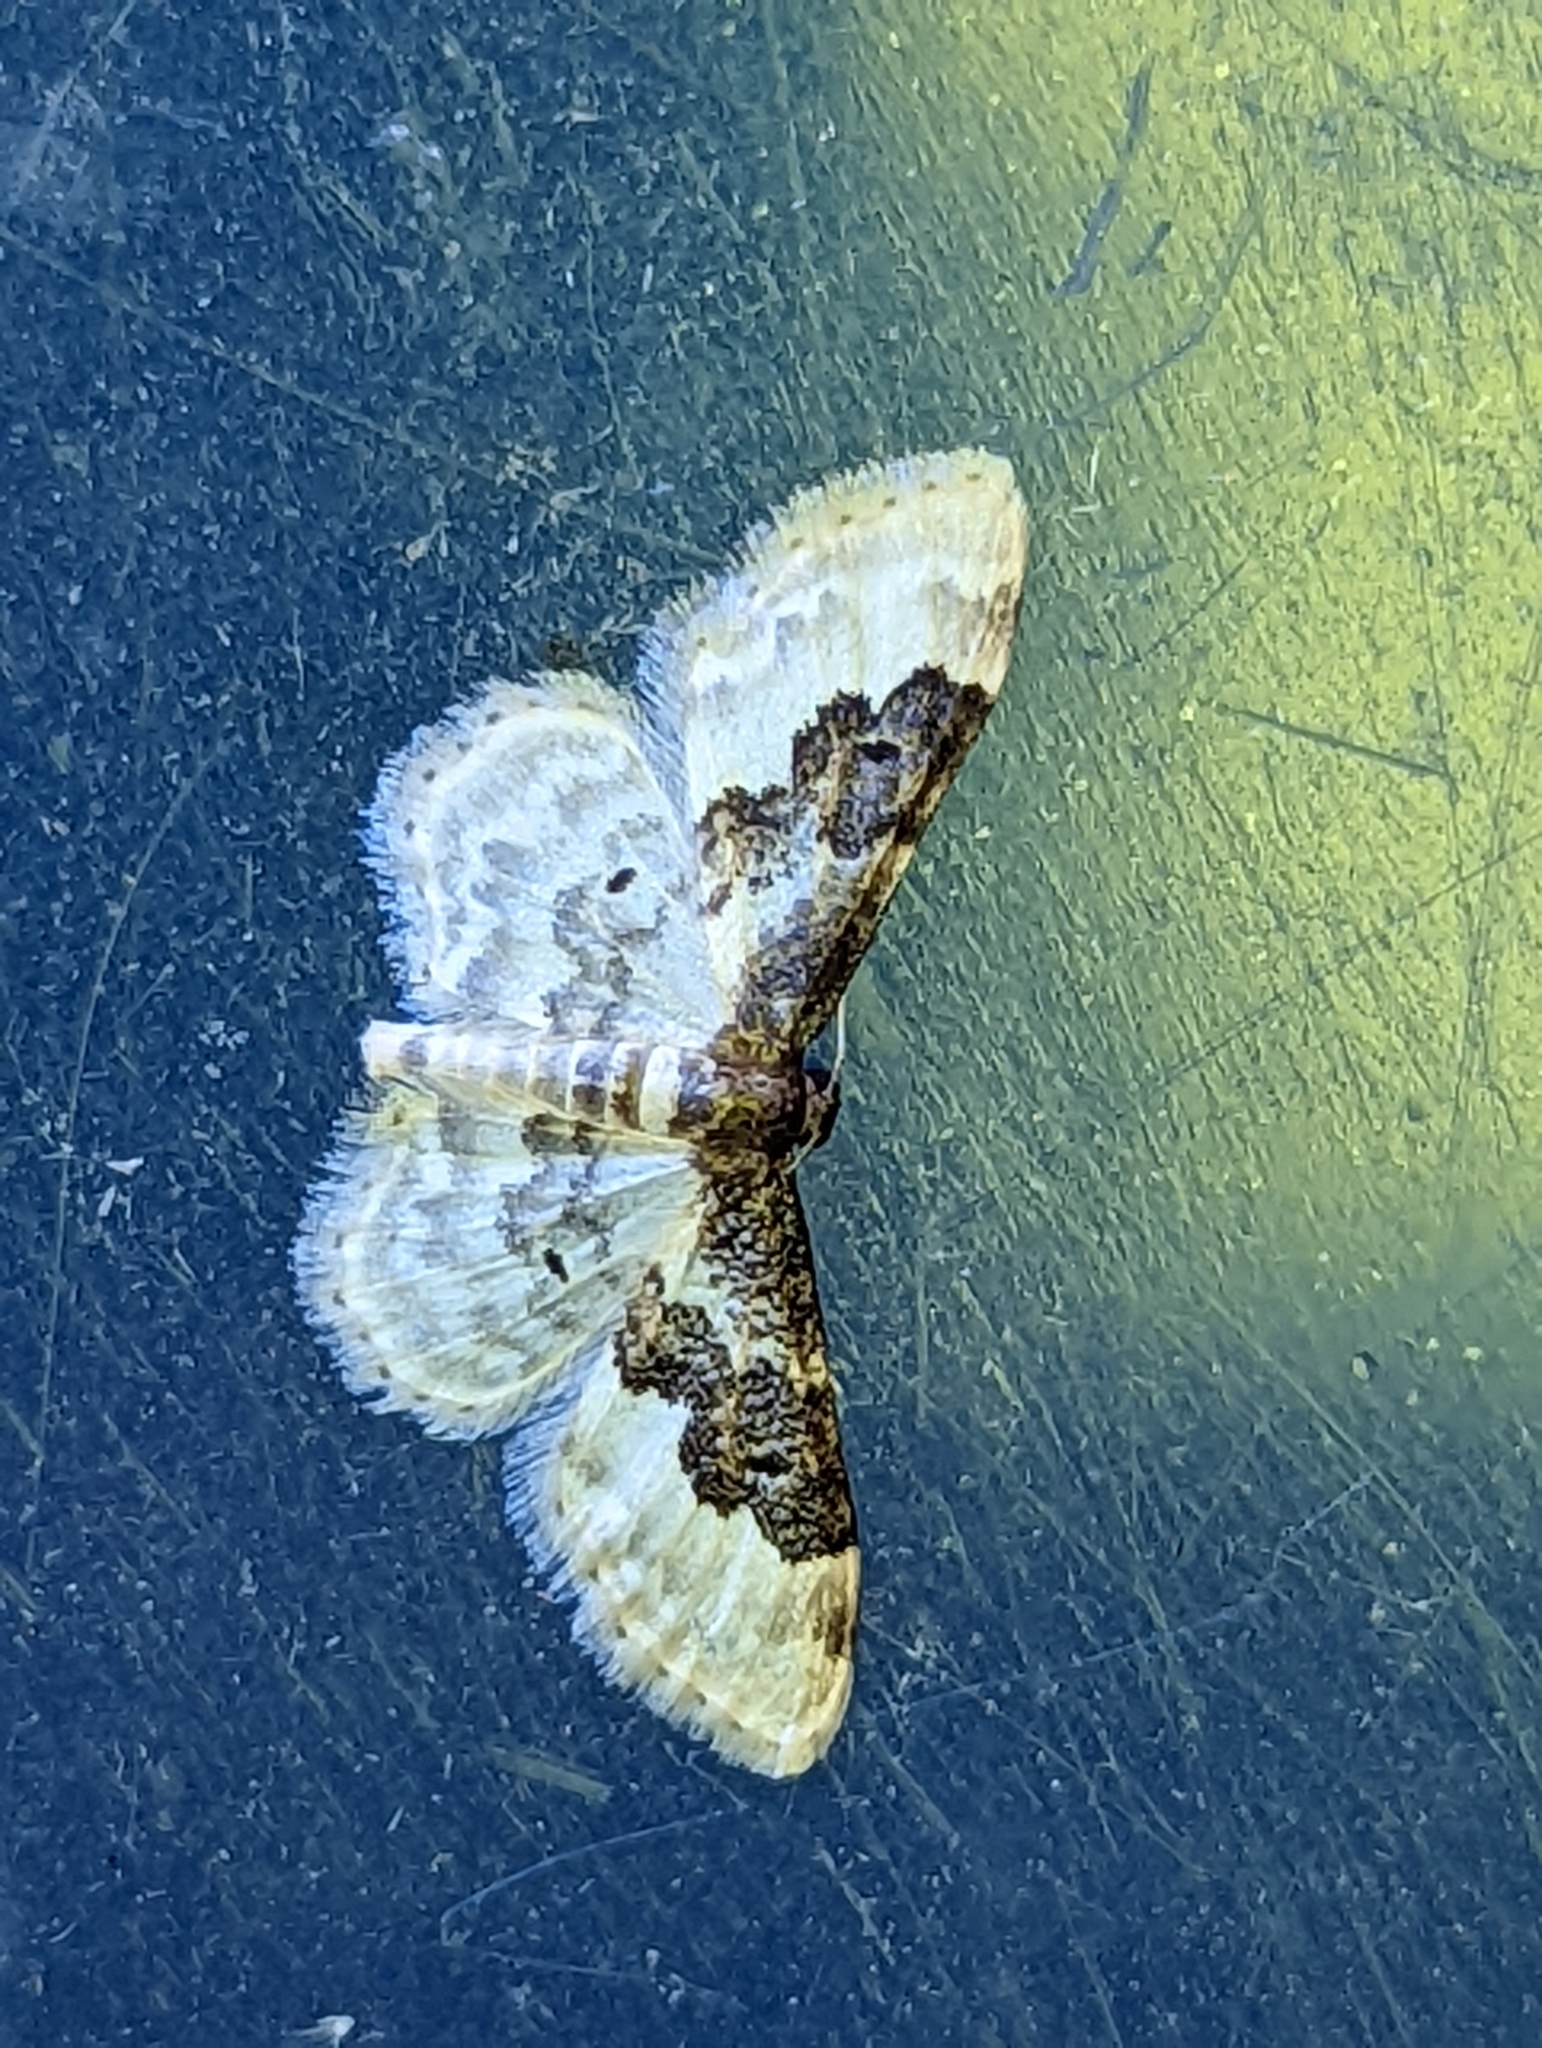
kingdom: Animalia
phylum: Arthropoda
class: Insecta
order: Lepidoptera
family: Geometridae
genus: Idaea
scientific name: Idaea rusticata
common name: Least carpet
